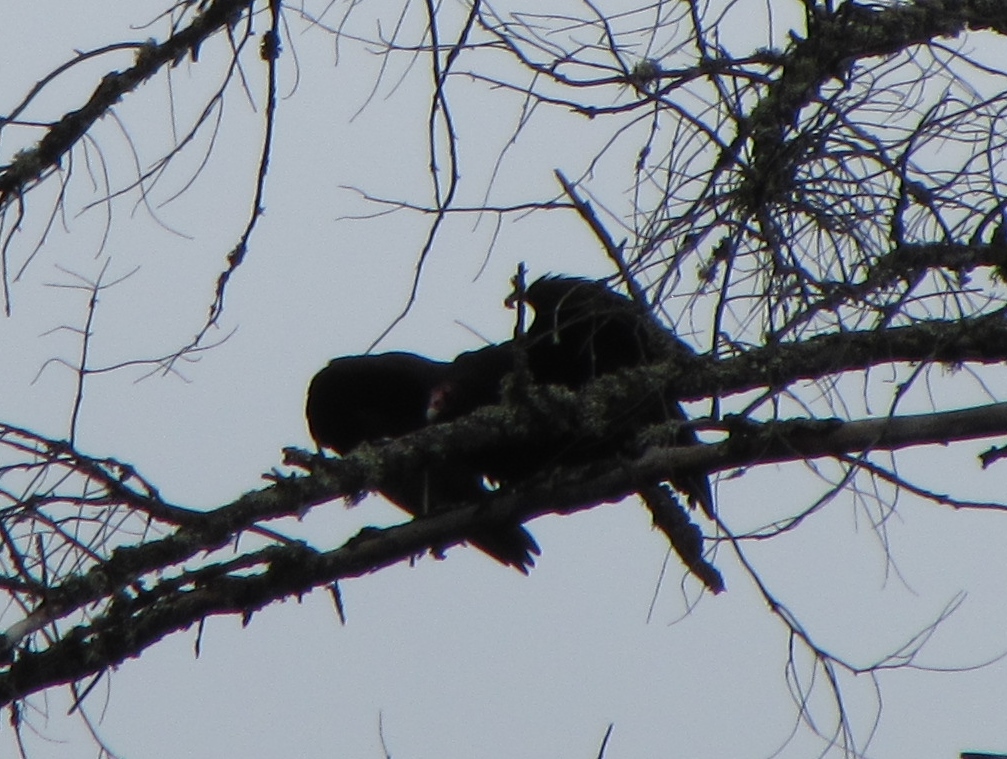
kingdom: Animalia
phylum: Chordata
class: Aves
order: Accipitriformes
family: Cathartidae
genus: Cathartes
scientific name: Cathartes aura
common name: Turkey vulture
